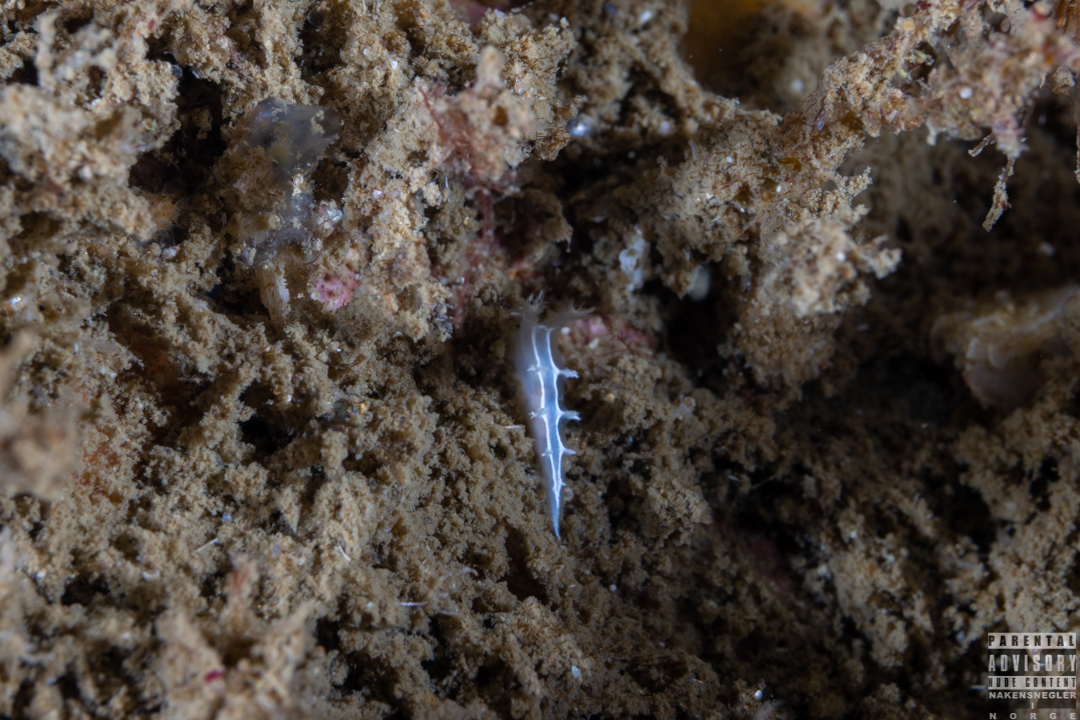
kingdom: Animalia
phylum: Mollusca
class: Gastropoda
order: Nudibranchia
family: Tritoniidae
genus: Duvaucelia
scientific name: Duvaucelia lineata
